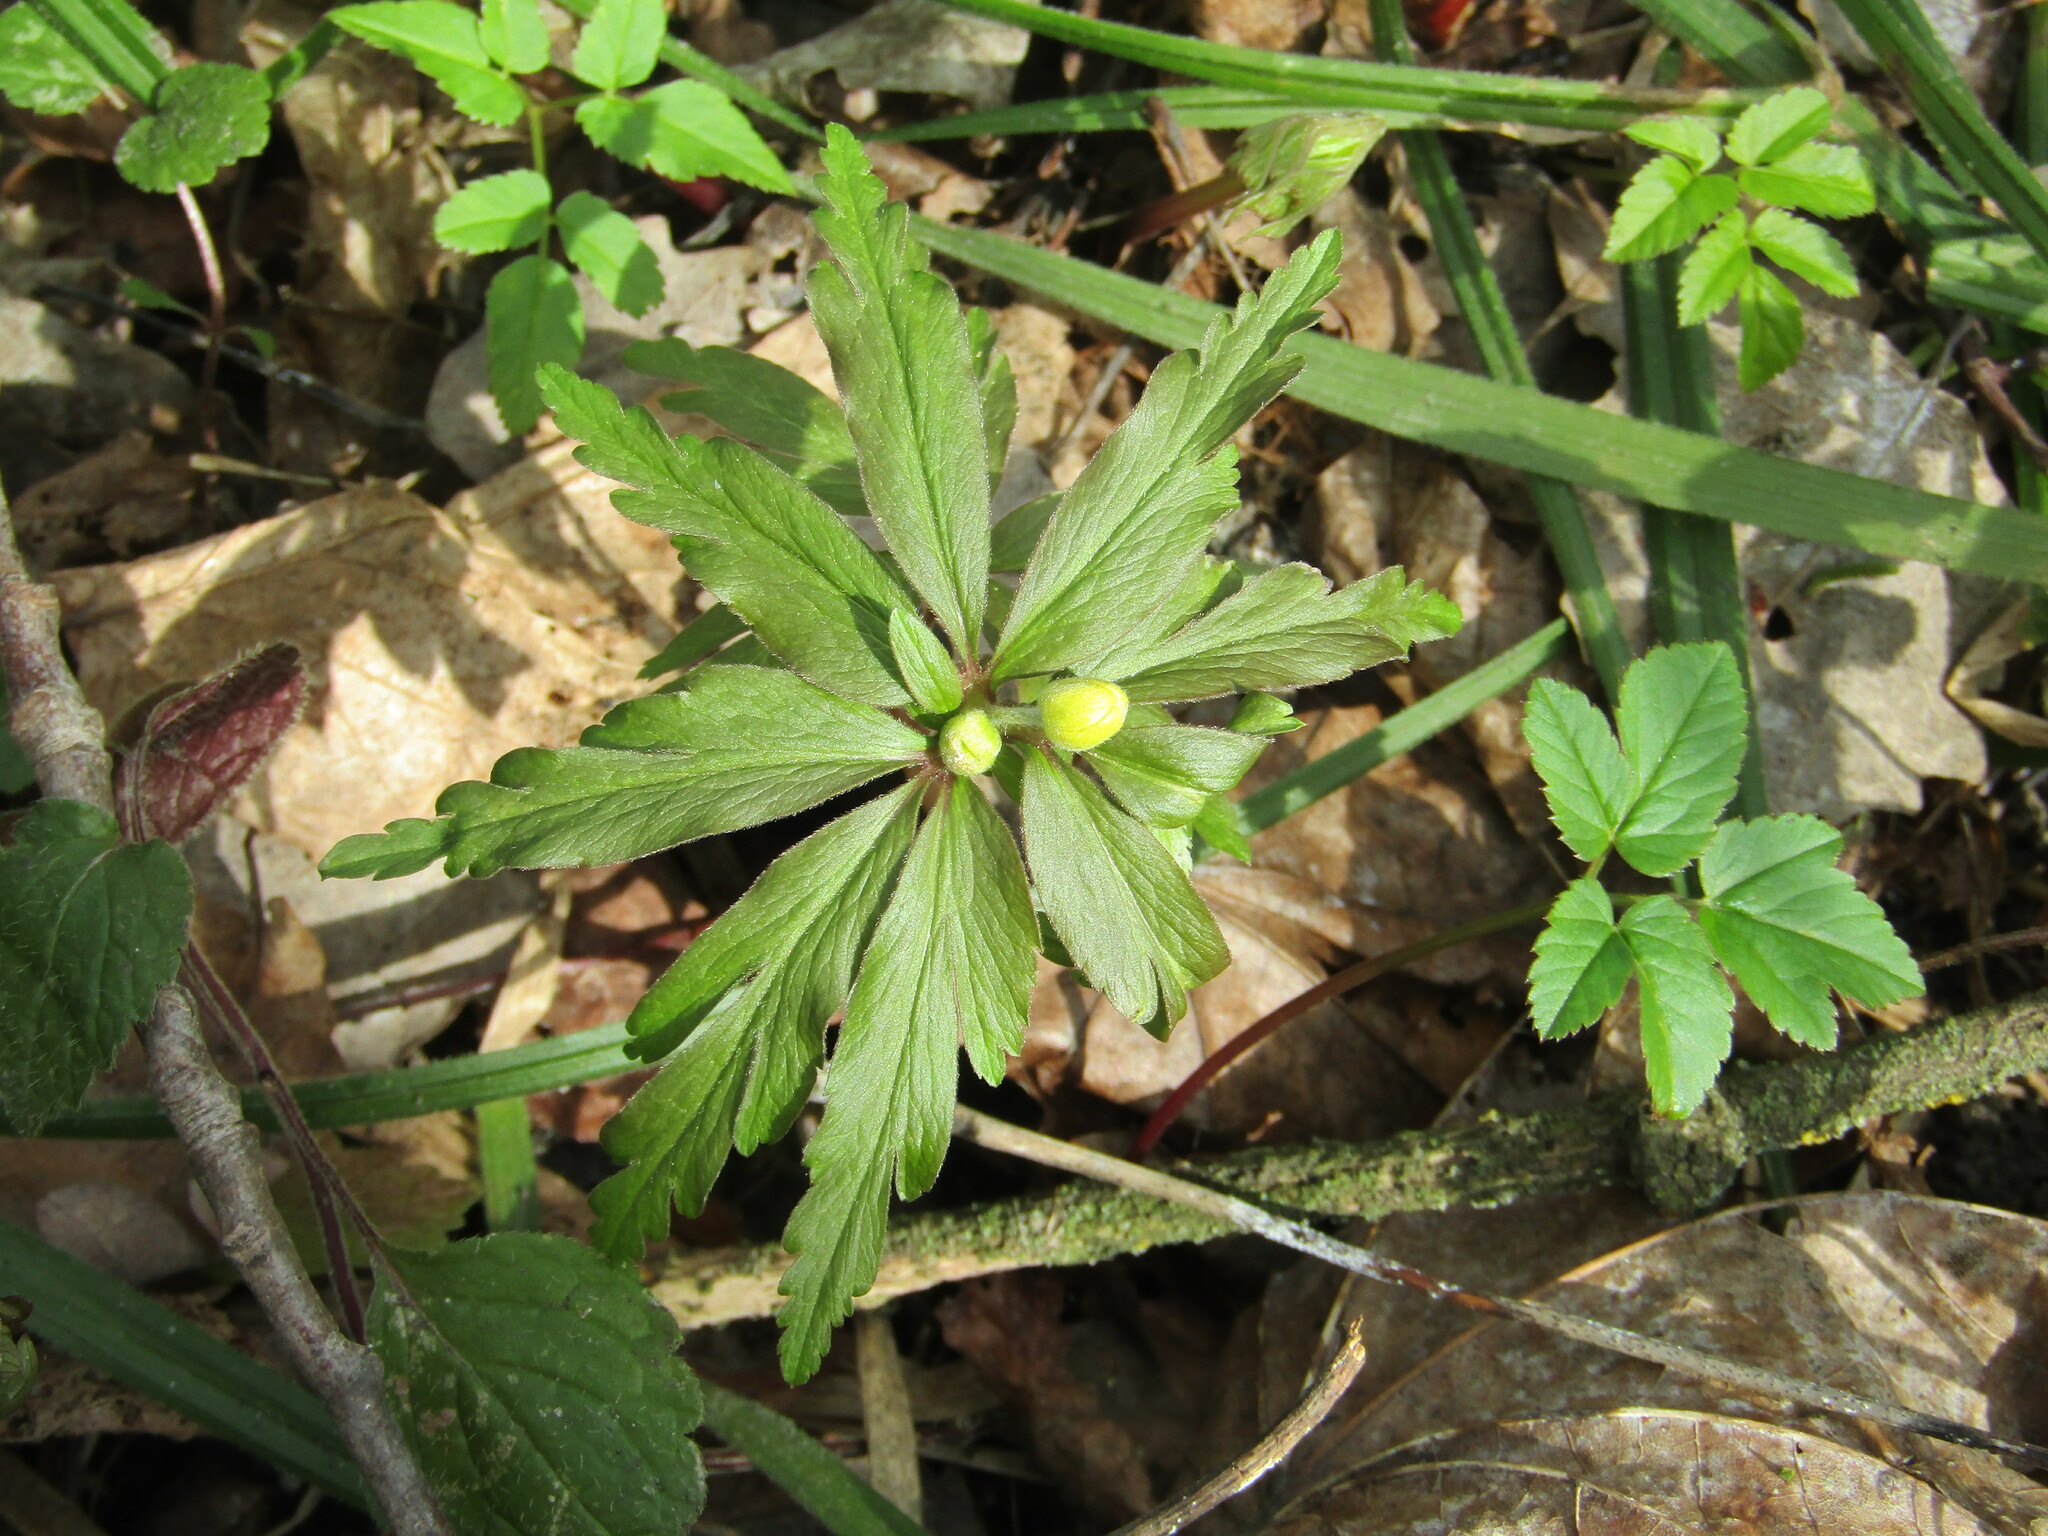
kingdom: Plantae
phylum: Tracheophyta
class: Magnoliopsida
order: Ranunculales
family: Ranunculaceae
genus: Anemone
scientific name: Anemone ranunculoides
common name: Yellow anemone
